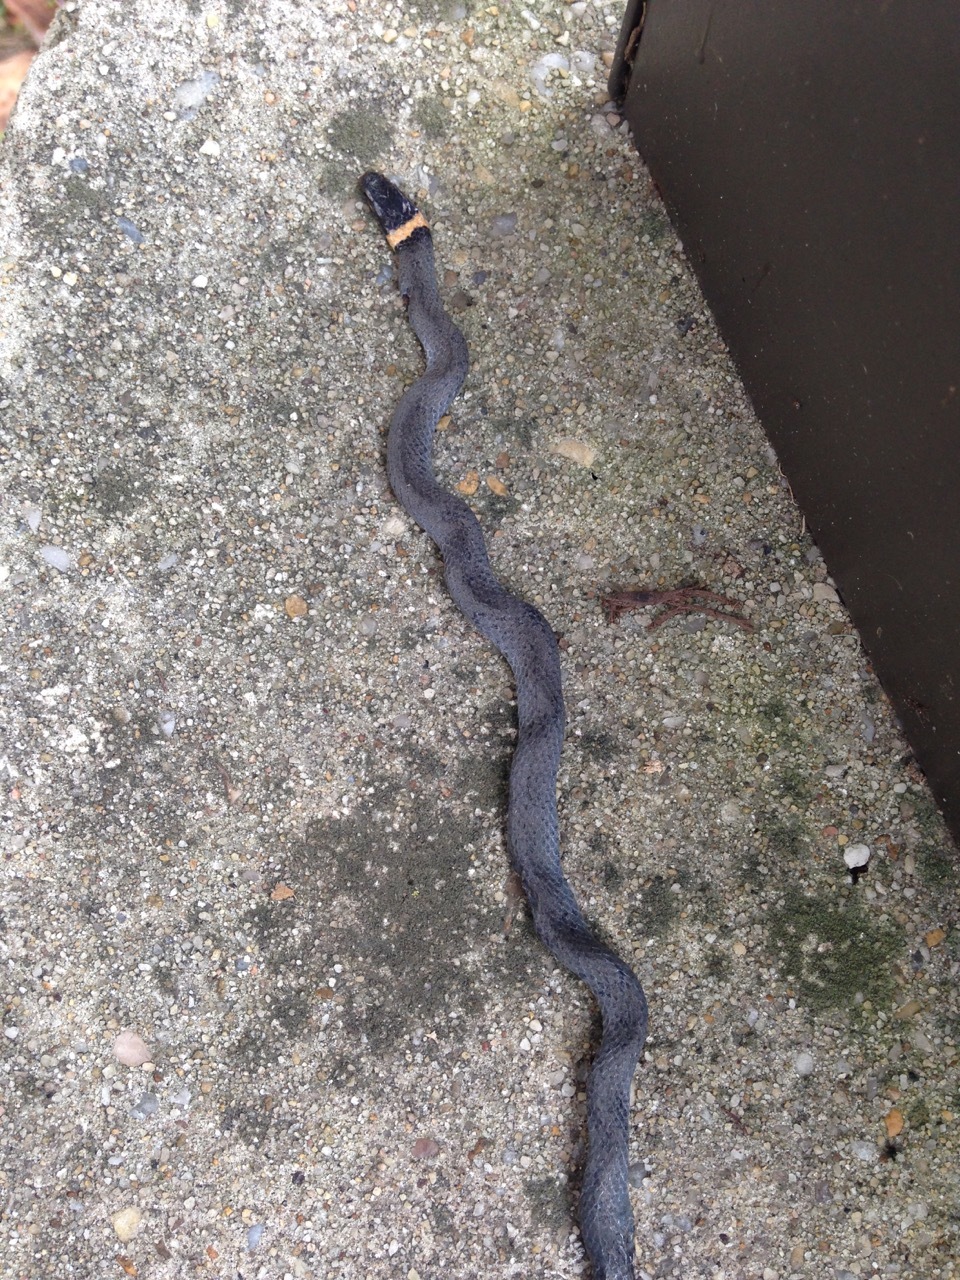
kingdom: Animalia
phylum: Chordata
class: Squamata
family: Colubridae
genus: Diadophis
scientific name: Diadophis punctatus
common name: Ringneck snake
